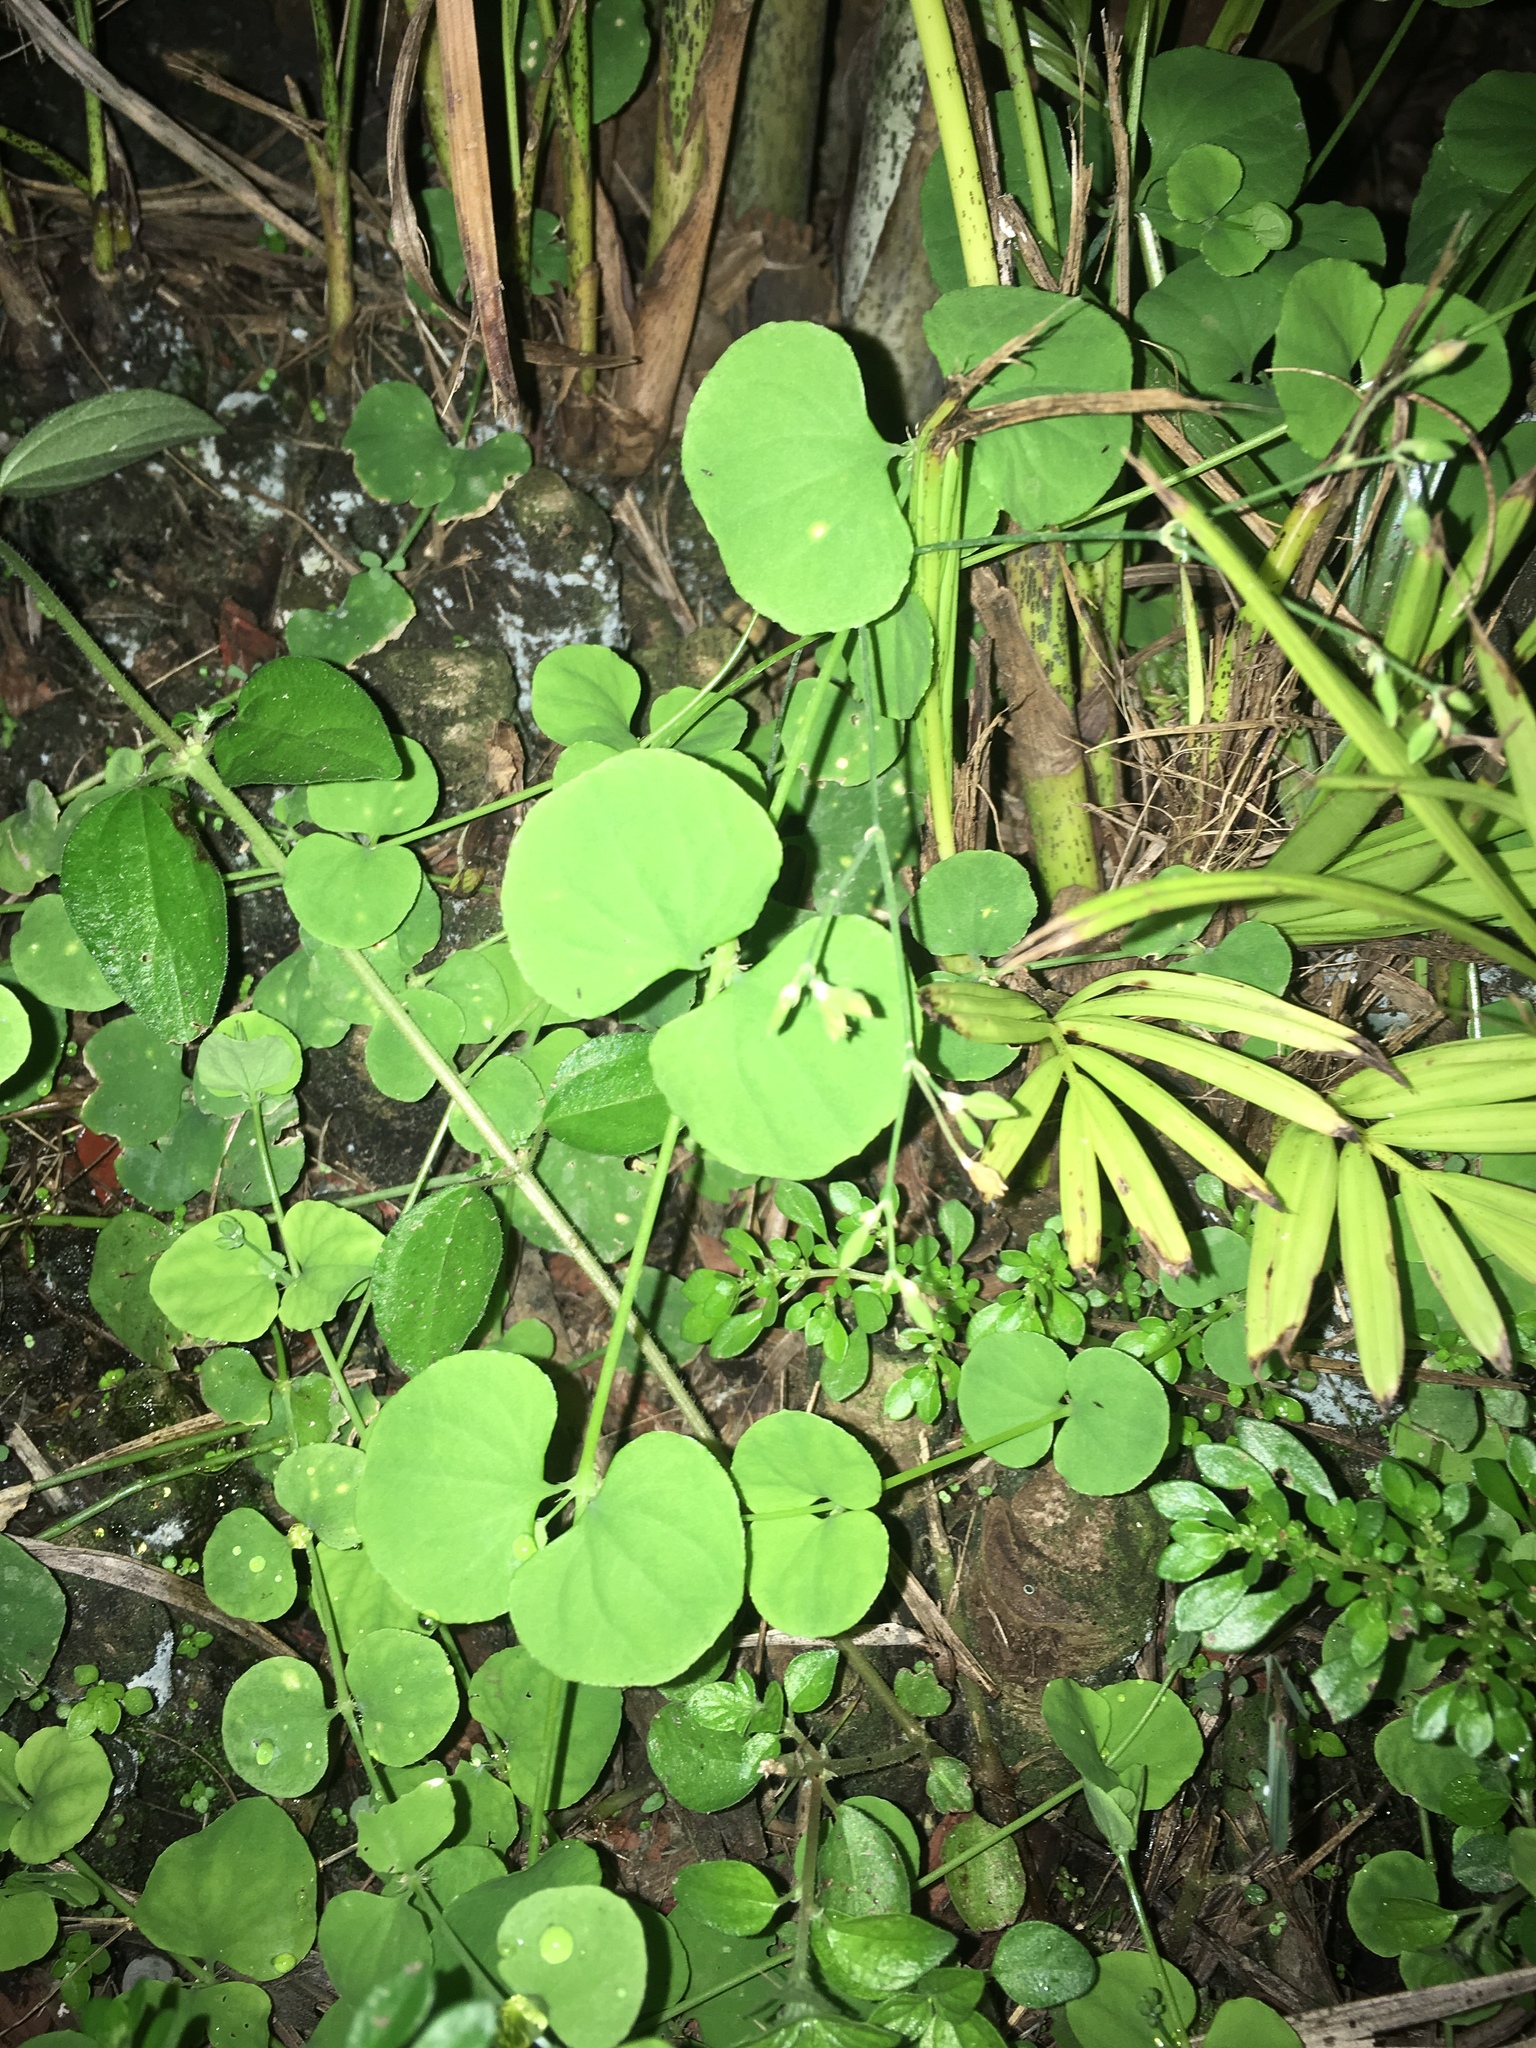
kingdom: Plantae
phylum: Tracheophyta
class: Magnoliopsida
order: Caryophyllales
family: Caryophyllaceae
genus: Drymaria
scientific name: Drymaria cordata
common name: Whitesnow
